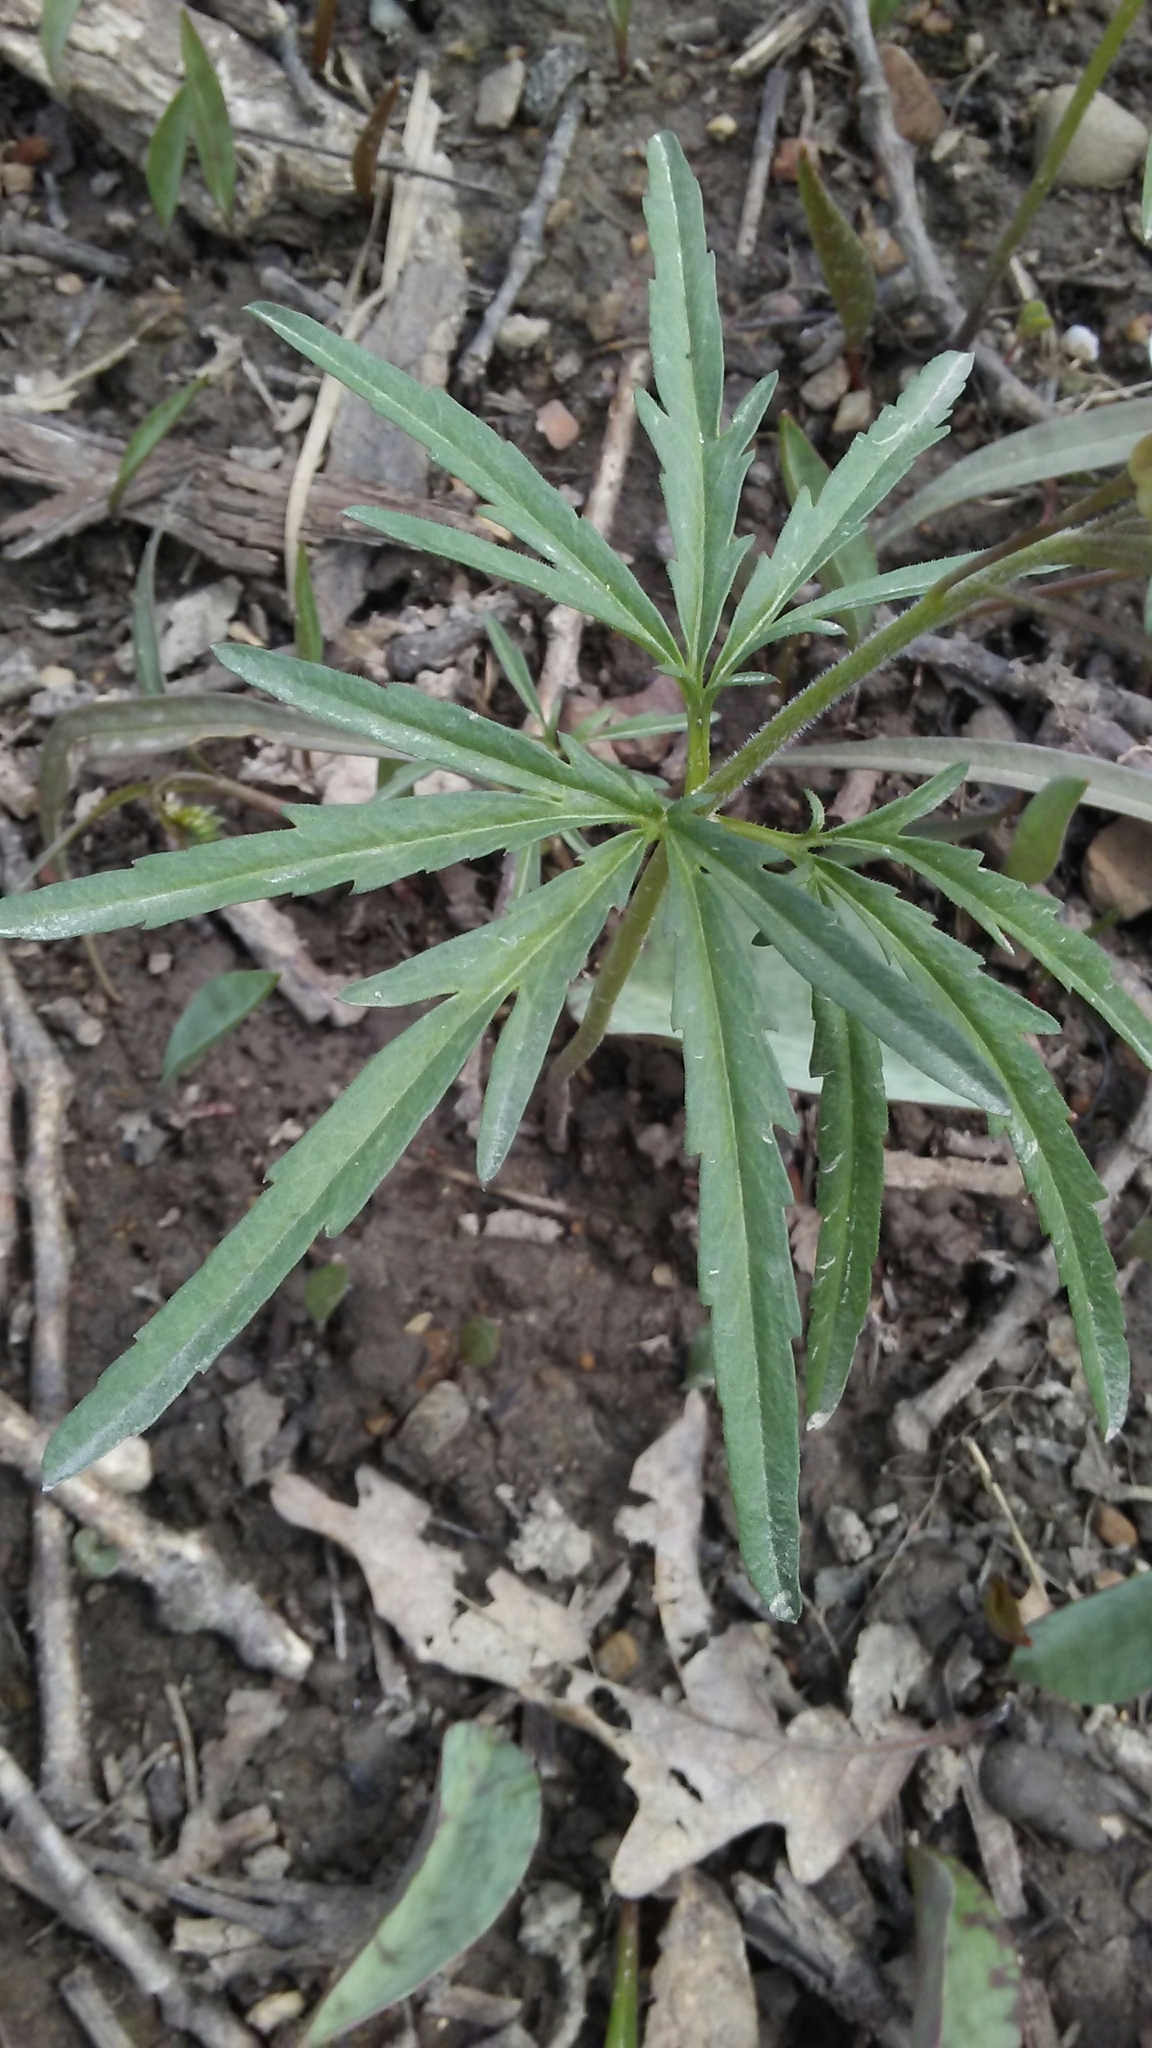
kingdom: Plantae
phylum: Tracheophyta
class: Magnoliopsida
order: Brassicales
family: Brassicaceae
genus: Cardamine
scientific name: Cardamine concatenata
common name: Cut-leaf toothcup
